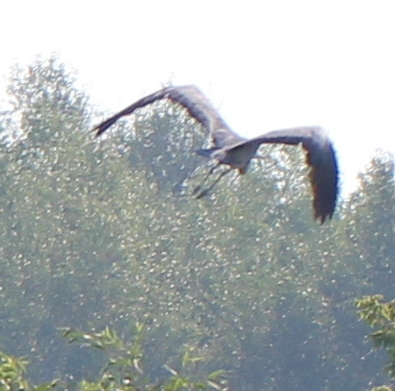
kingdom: Animalia
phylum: Chordata
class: Aves
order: Pelecaniformes
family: Ardeidae
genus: Ardea
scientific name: Ardea cinerea
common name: Grey heron
